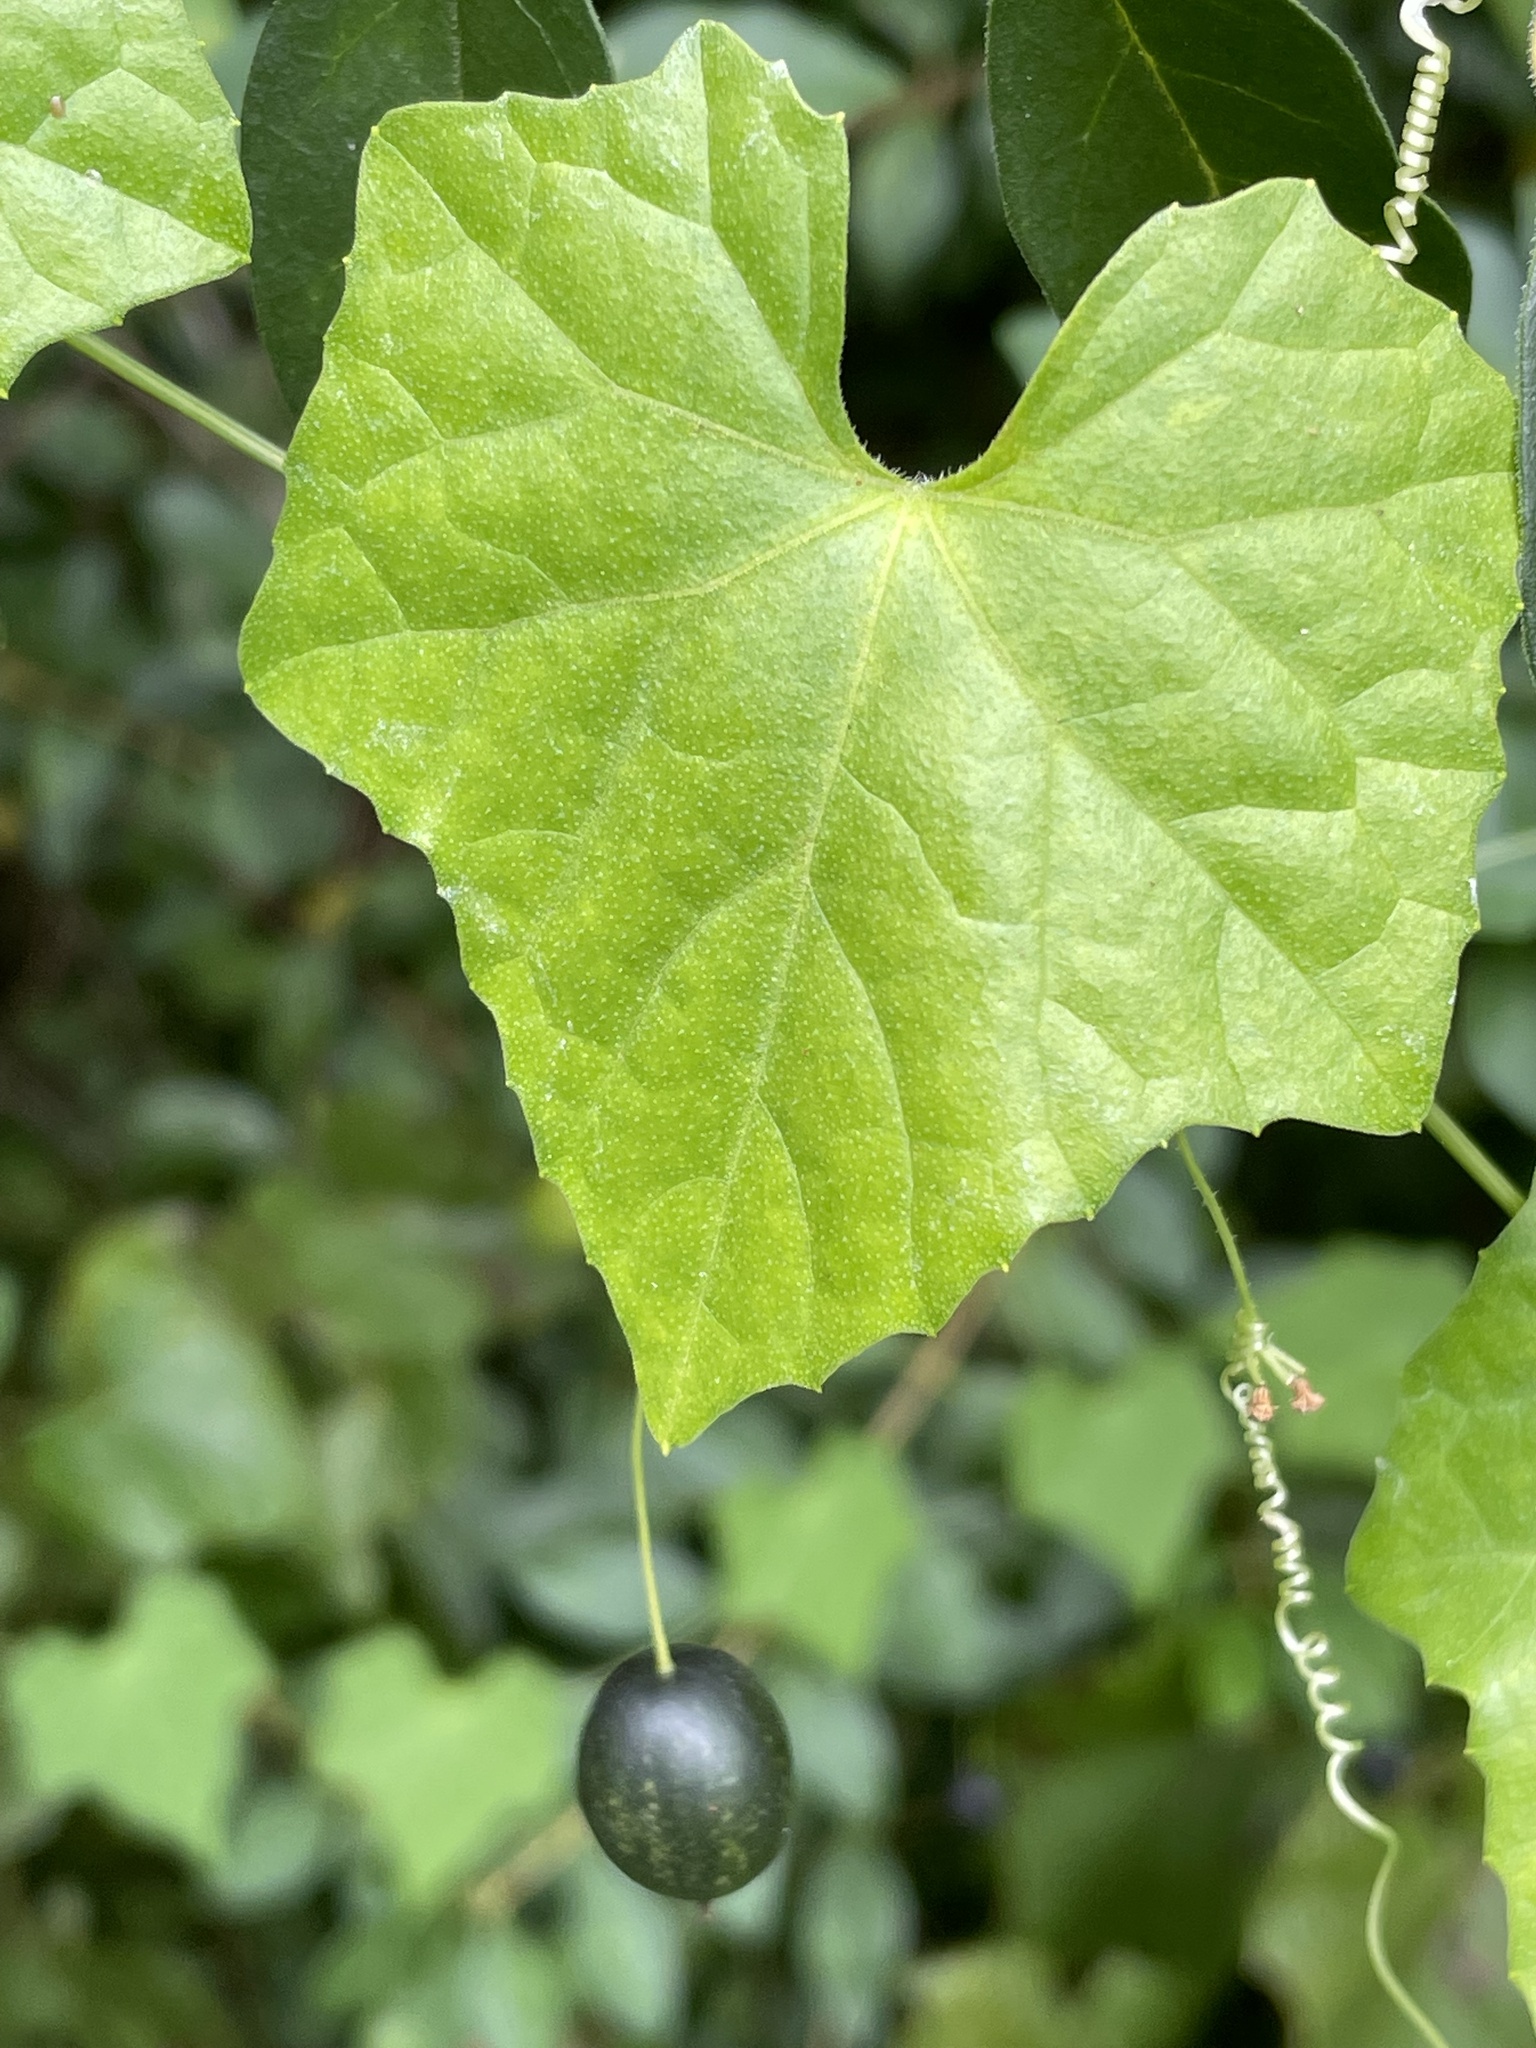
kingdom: Plantae
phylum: Tracheophyta
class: Magnoliopsida
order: Cucurbitales
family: Cucurbitaceae
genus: Melothria
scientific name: Melothria pendula
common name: Creeping-cucumber
